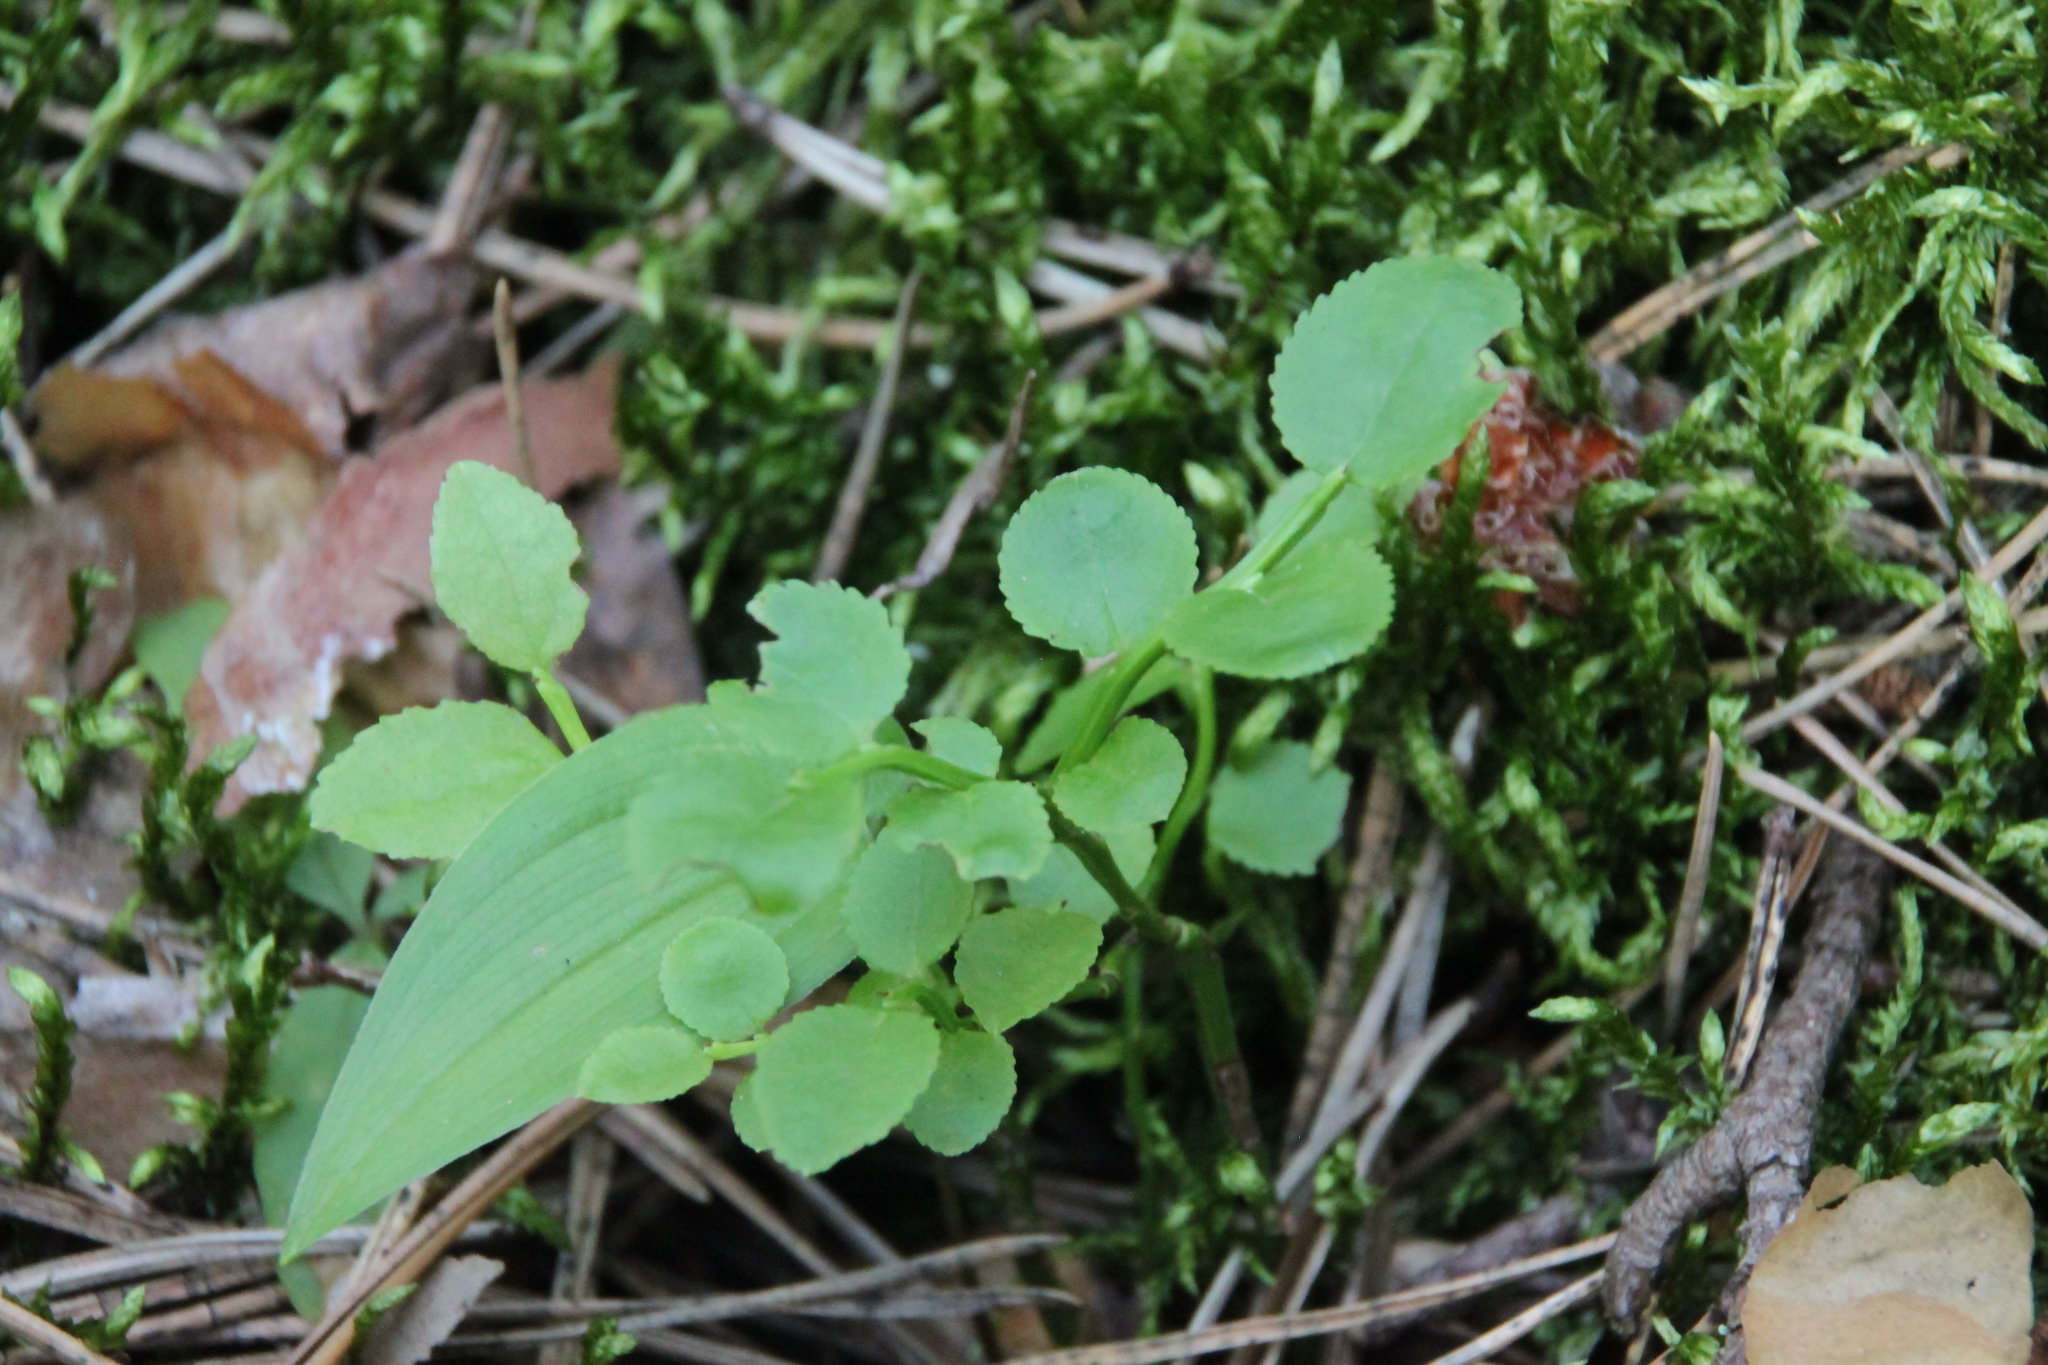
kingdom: Plantae
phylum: Tracheophyta
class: Magnoliopsida
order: Ericales
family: Ericaceae
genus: Vaccinium
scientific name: Vaccinium myrtillus
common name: Bilberry
